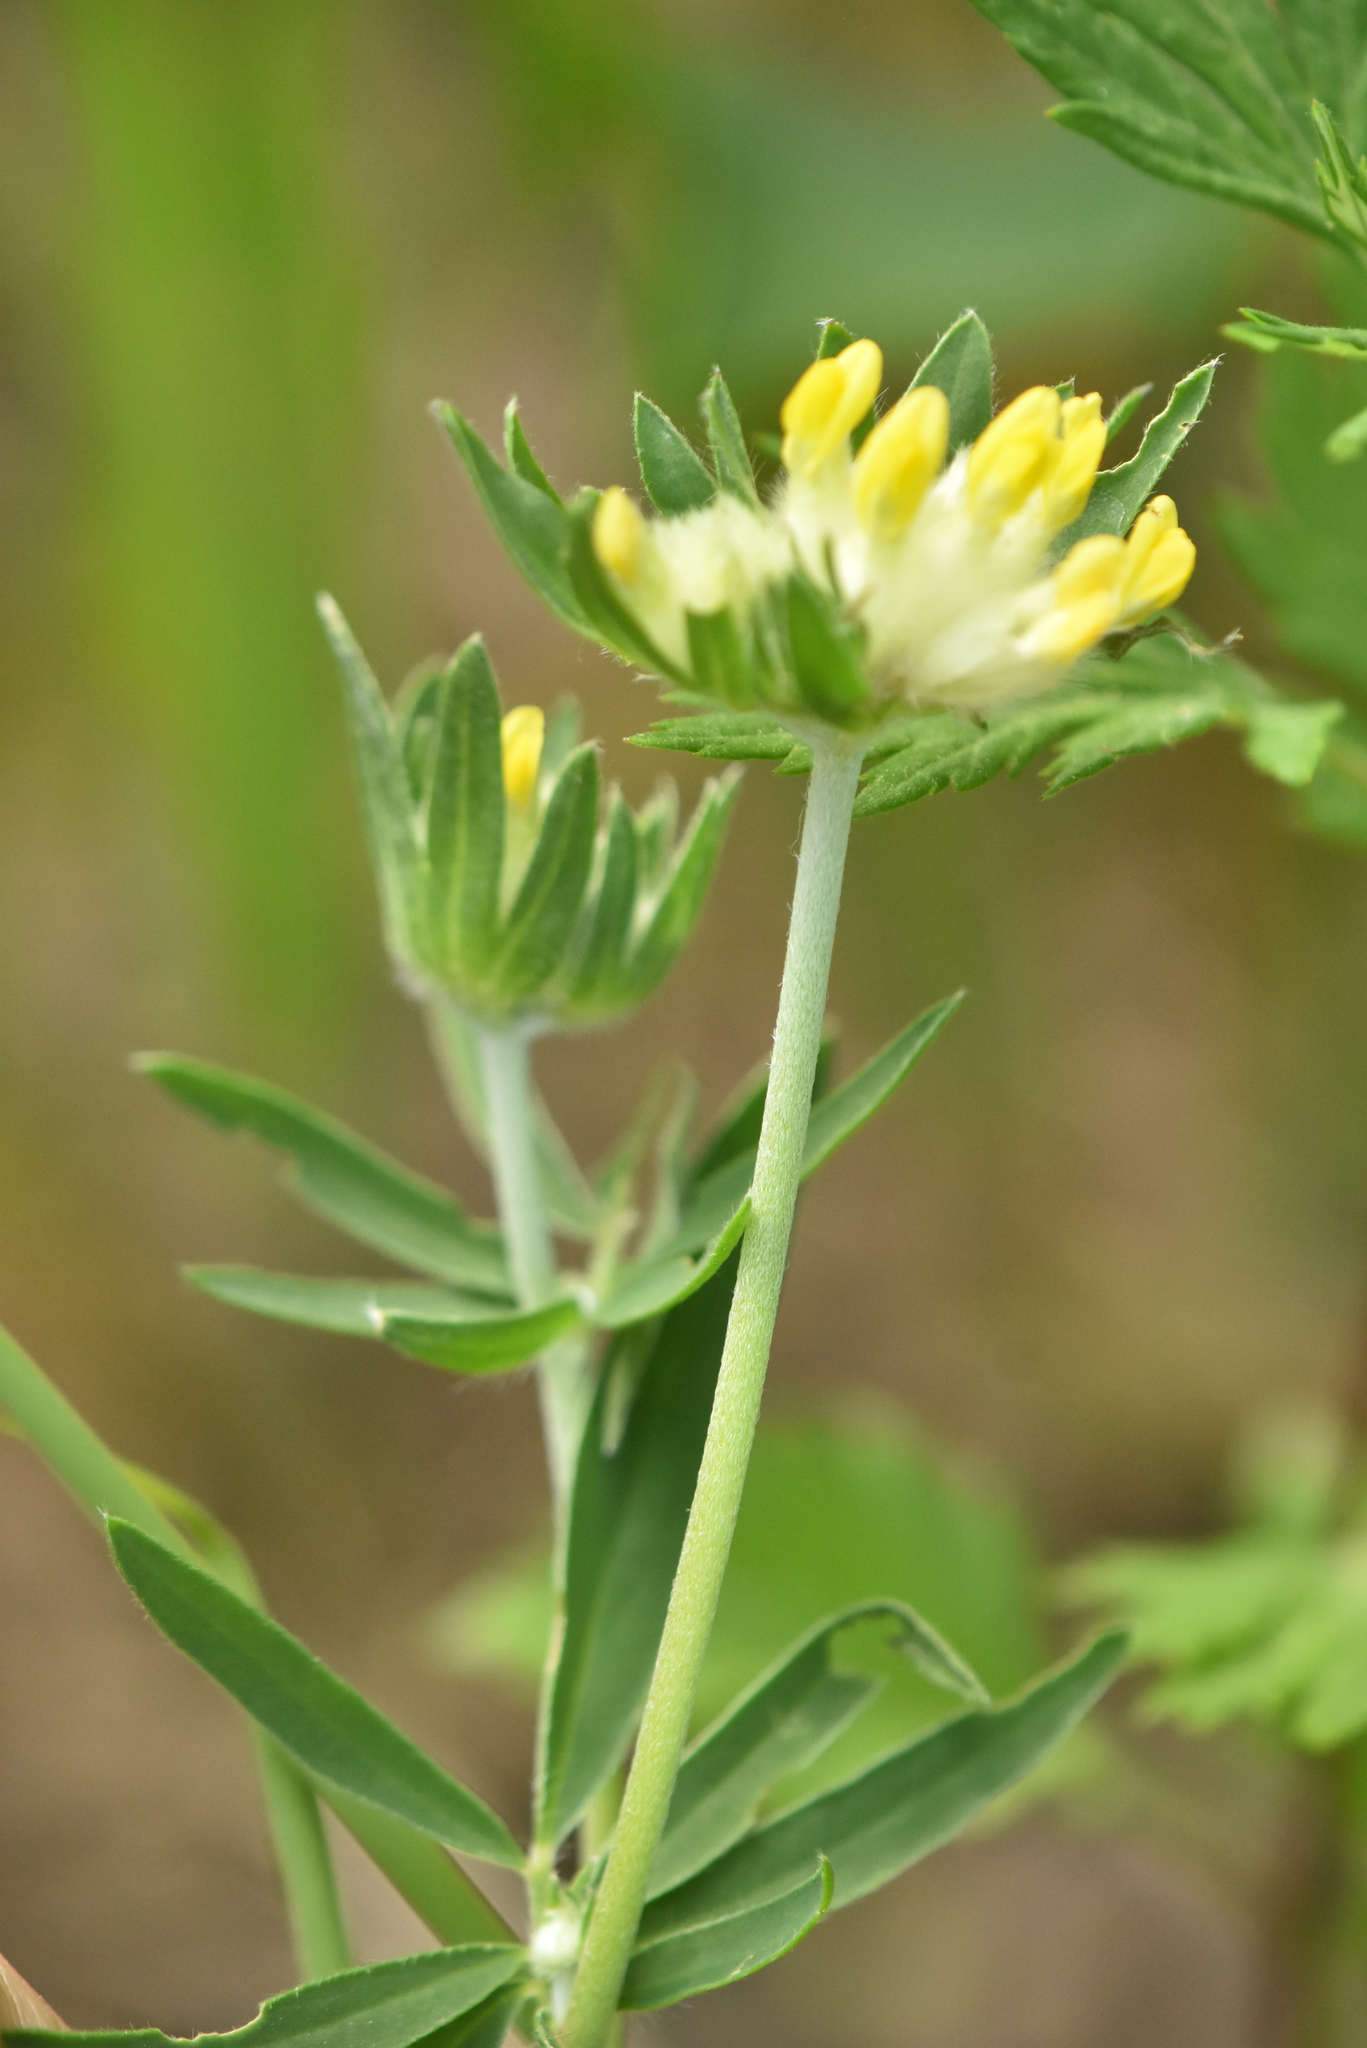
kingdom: Plantae
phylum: Tracheophyta
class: Magnoliopsida
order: Fabales
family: Fabaceae
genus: Anthyllis
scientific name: Anthyllis vulneraria
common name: Kidney vetch
